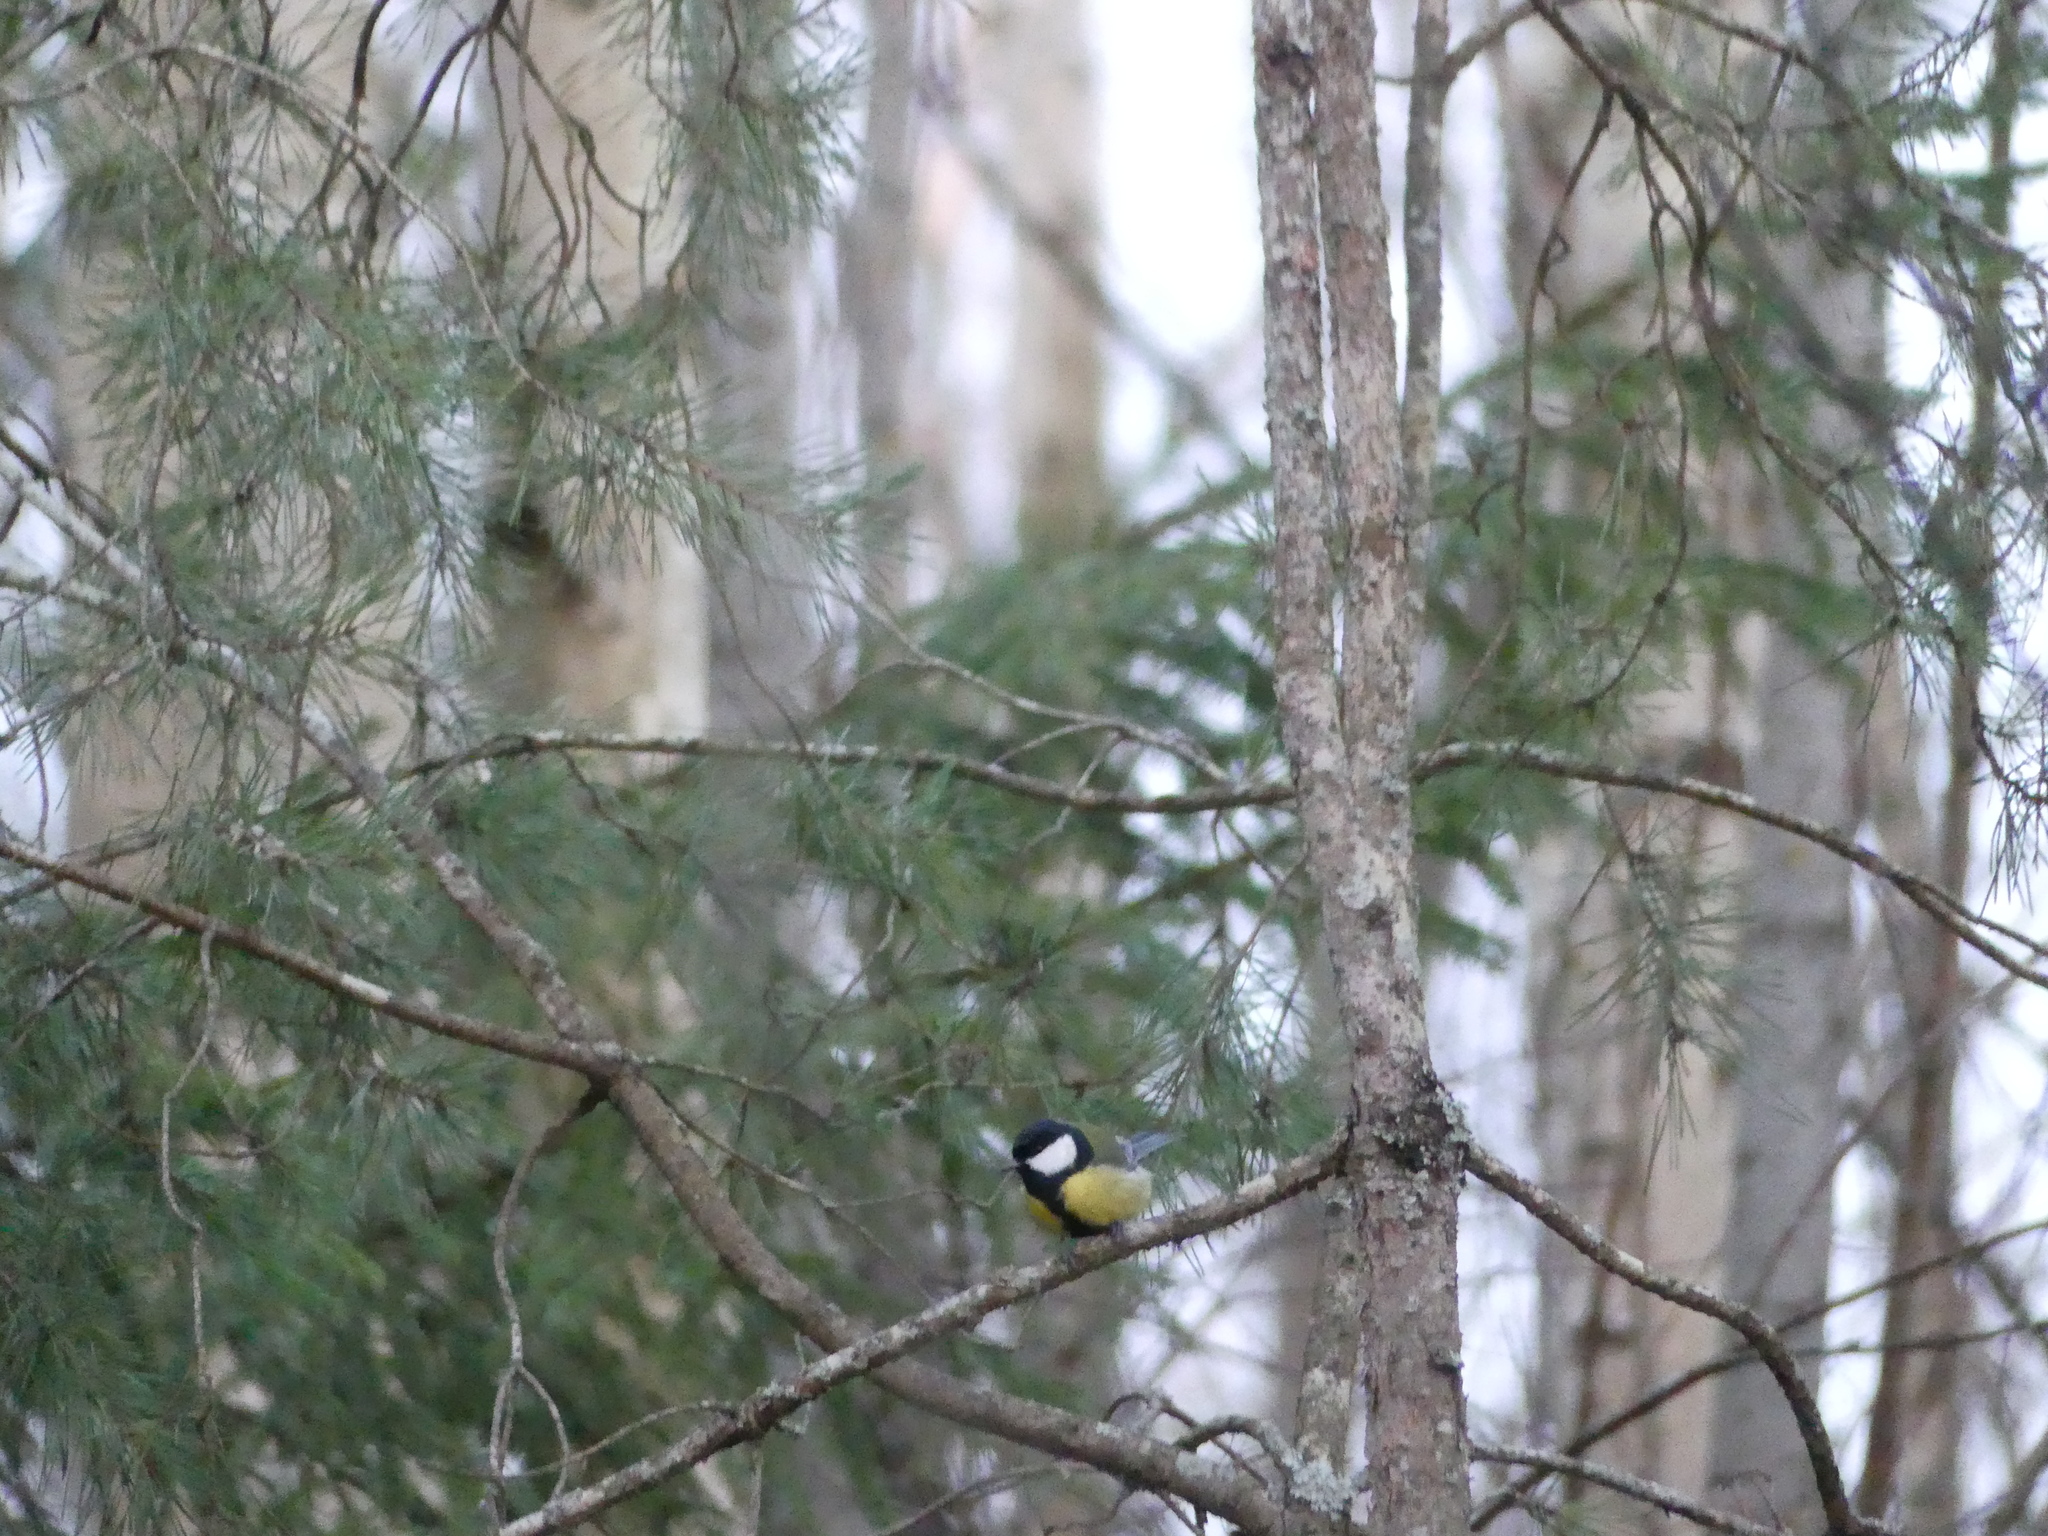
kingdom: Animalia
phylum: Chordata
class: Aves
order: Passeriformes
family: Paridae
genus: Parus
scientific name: Parus major
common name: Great tit
